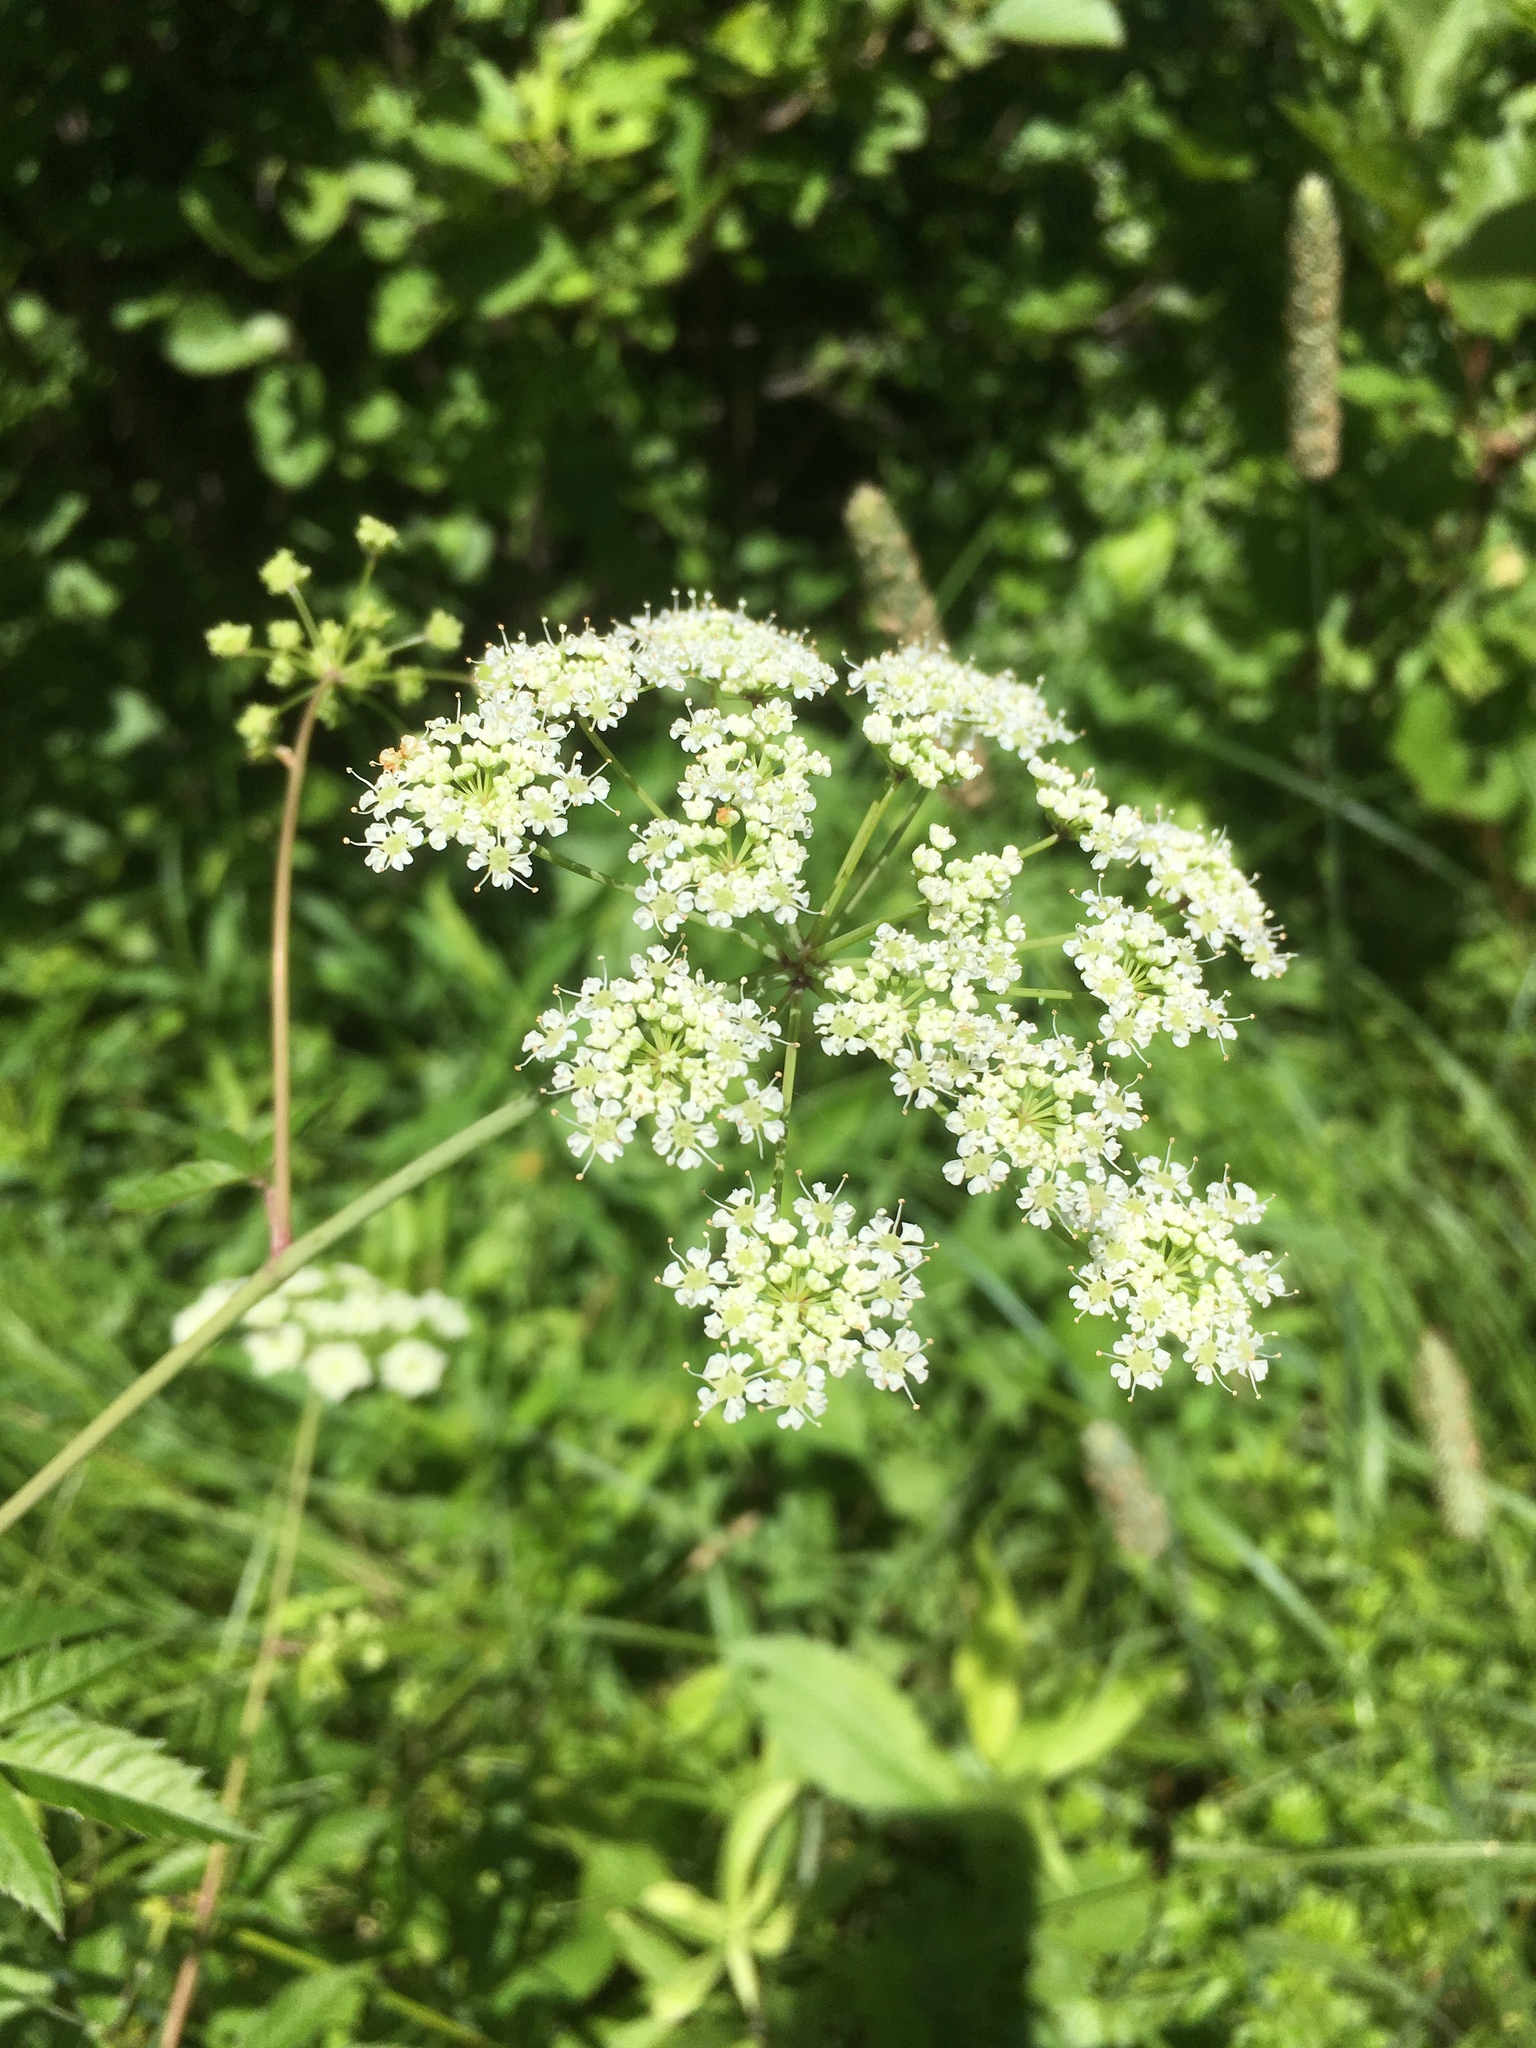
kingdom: Plantae
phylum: Tracheophyta
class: Magnoliopsida
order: Apiales
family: Apiaceae
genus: Cicuta
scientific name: Cicuta maculata
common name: Spotted cowbane
